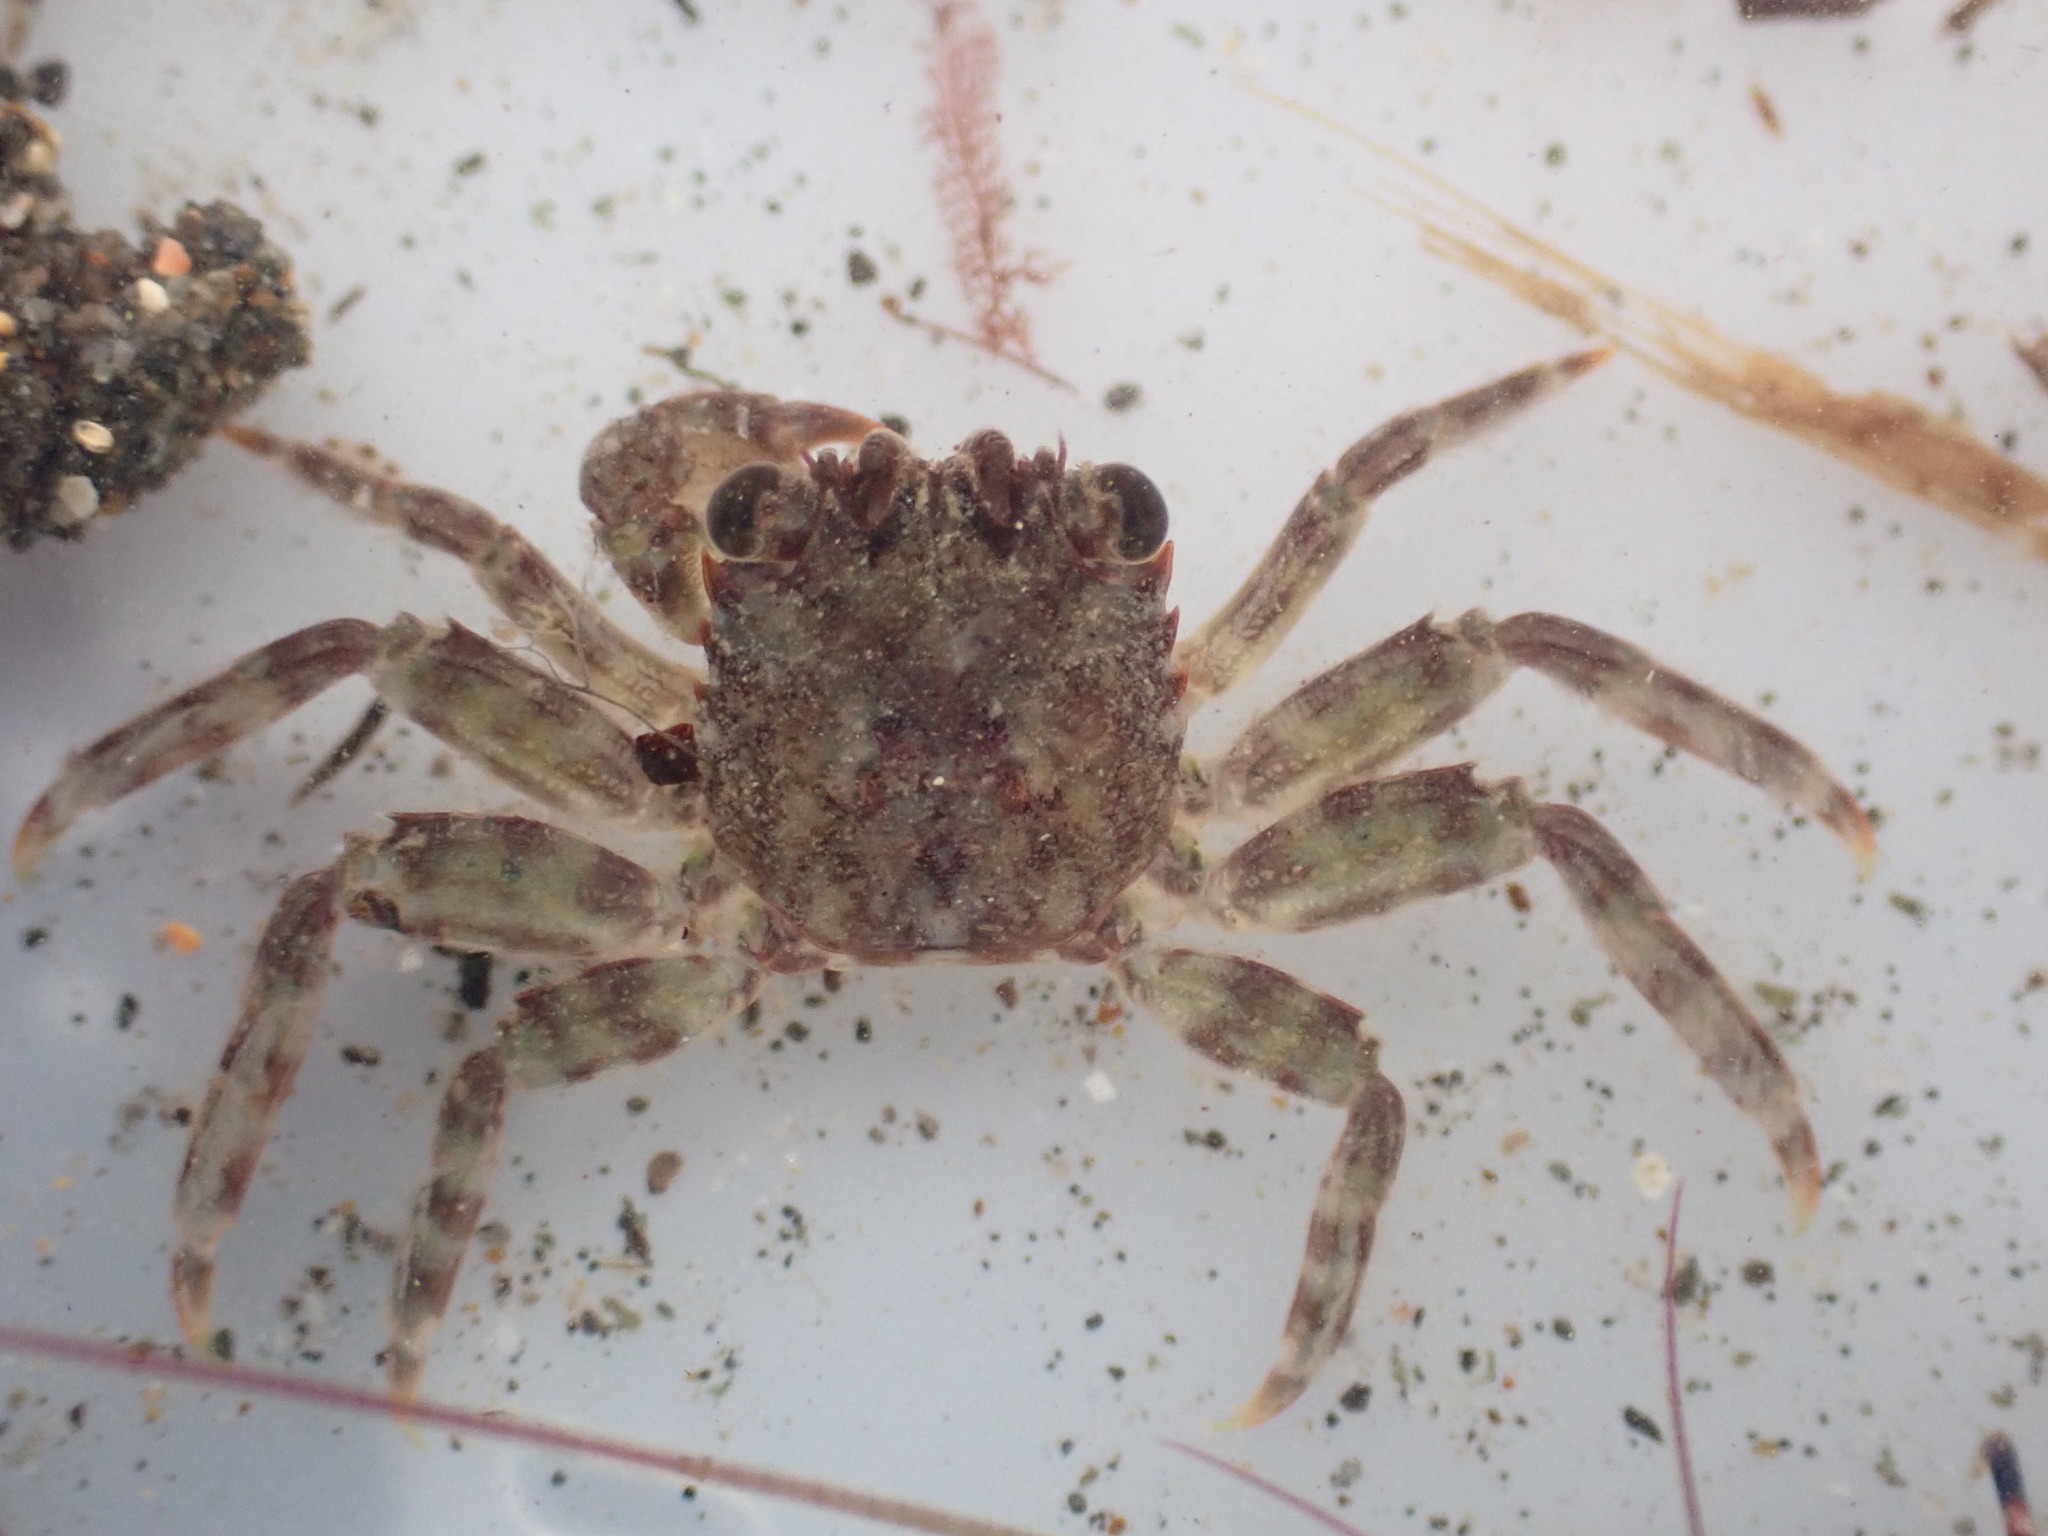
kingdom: Animalia
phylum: Arthropoda
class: Malacostraca
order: Decapoda
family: Plagusiidae
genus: Guinusia
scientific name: Guinusia chabrus
